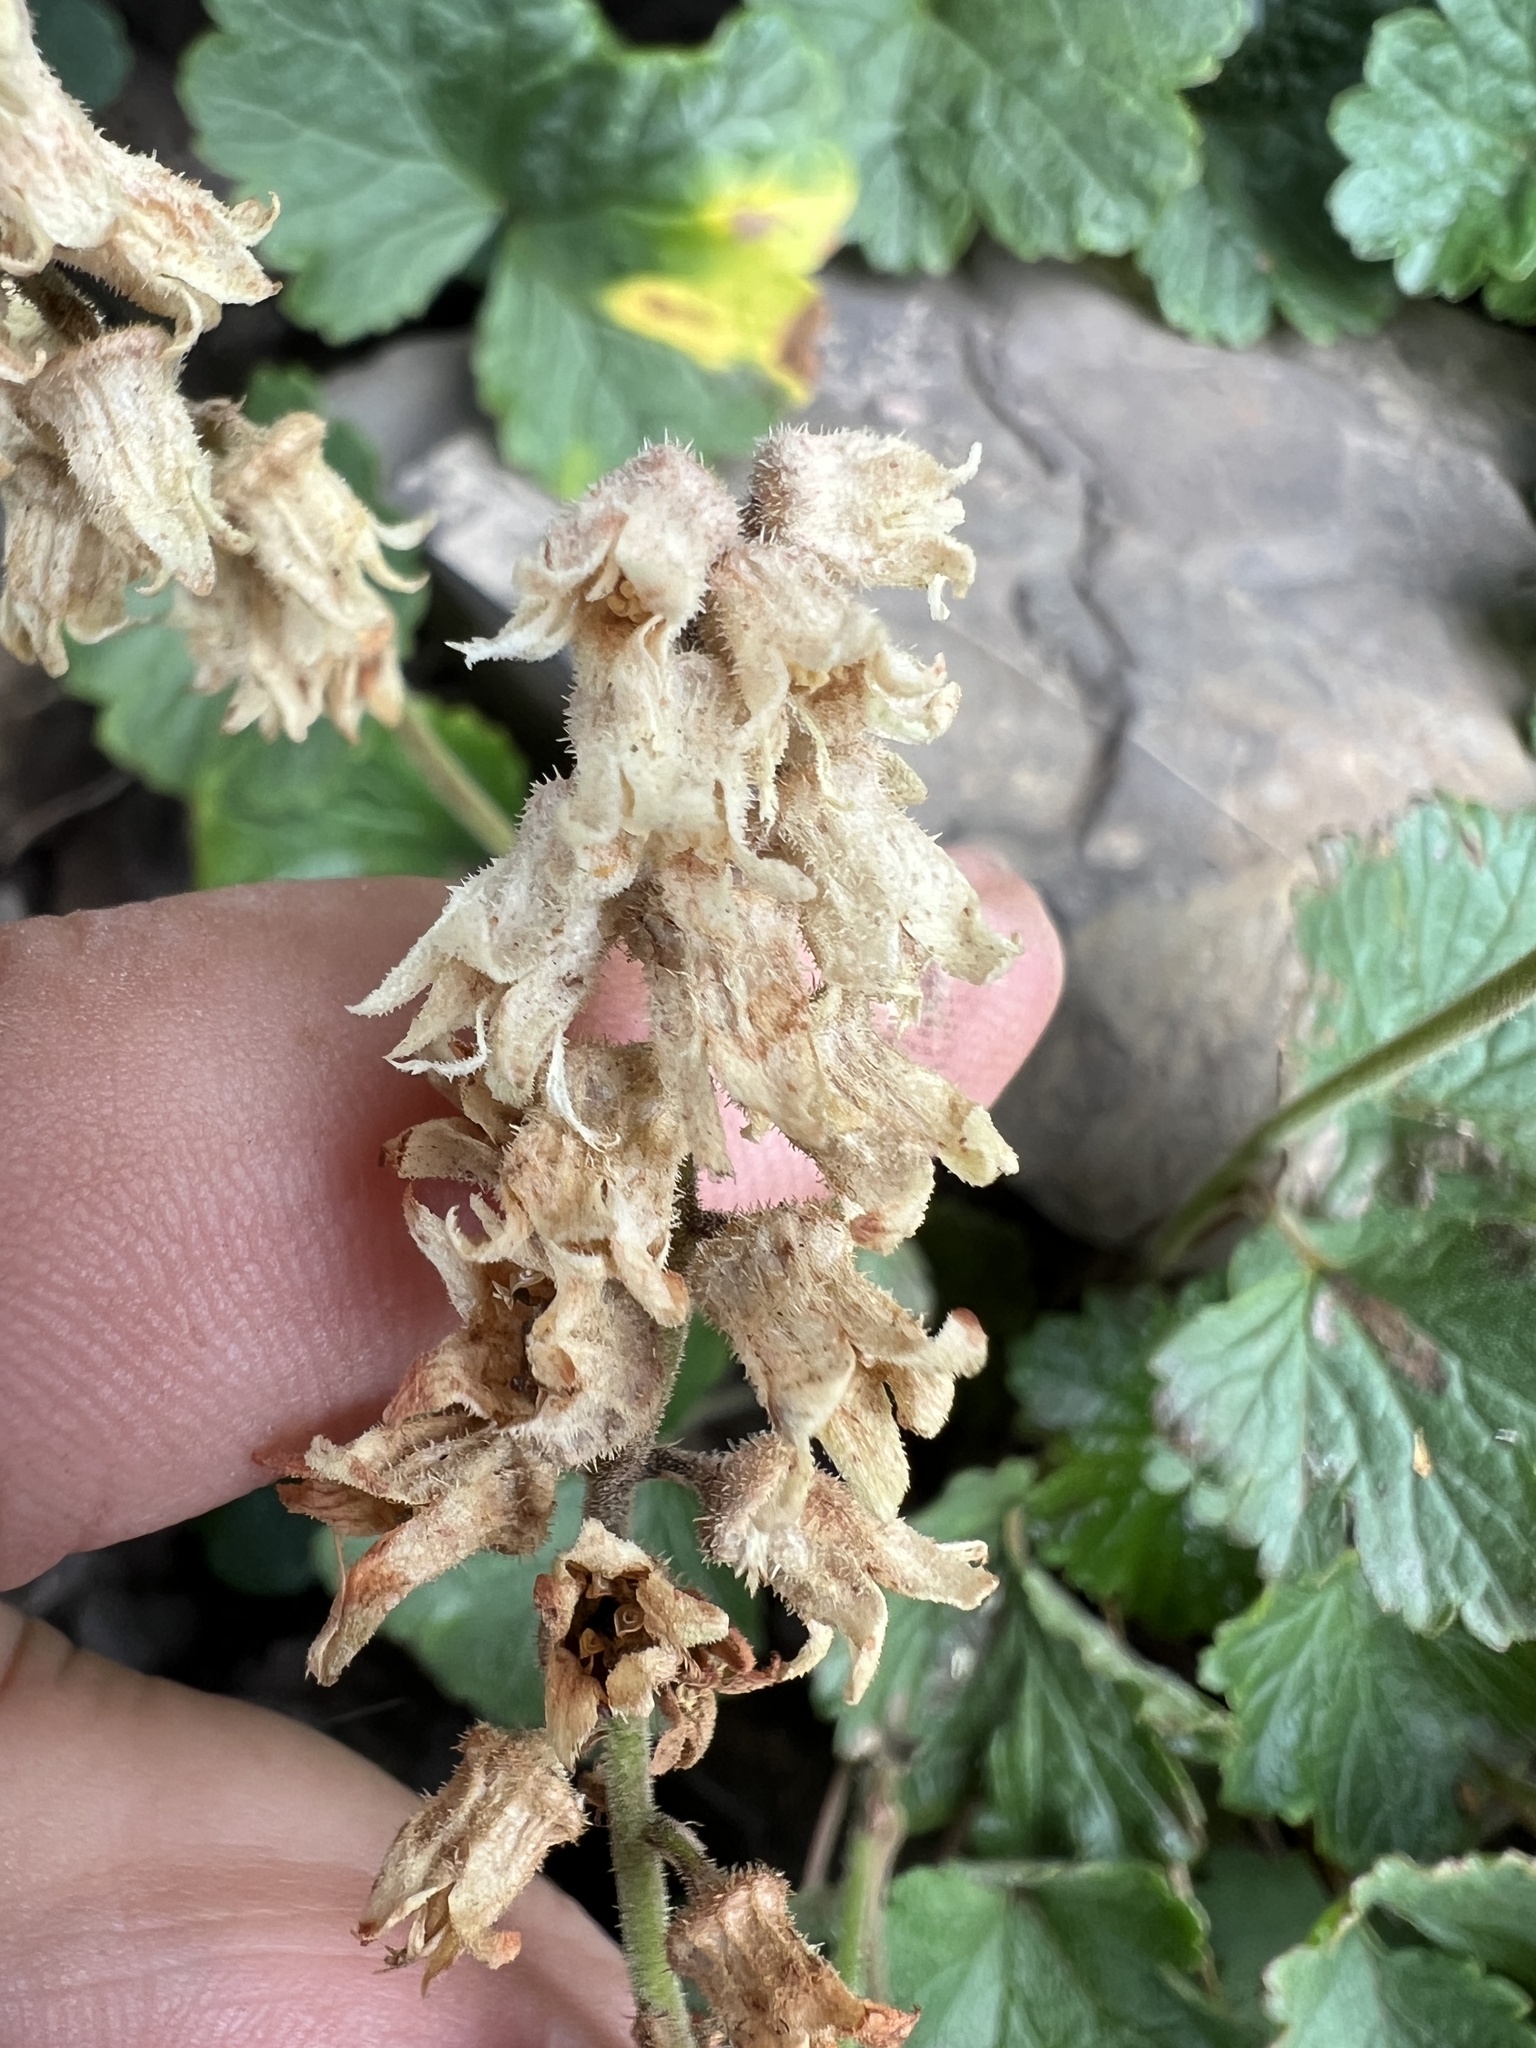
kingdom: Plantae
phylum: Tracheophyta
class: Magnoliopsida
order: Saxifragales
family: Saxifragaceae
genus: Elmera
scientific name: Elmera racemosa
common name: Elmera
